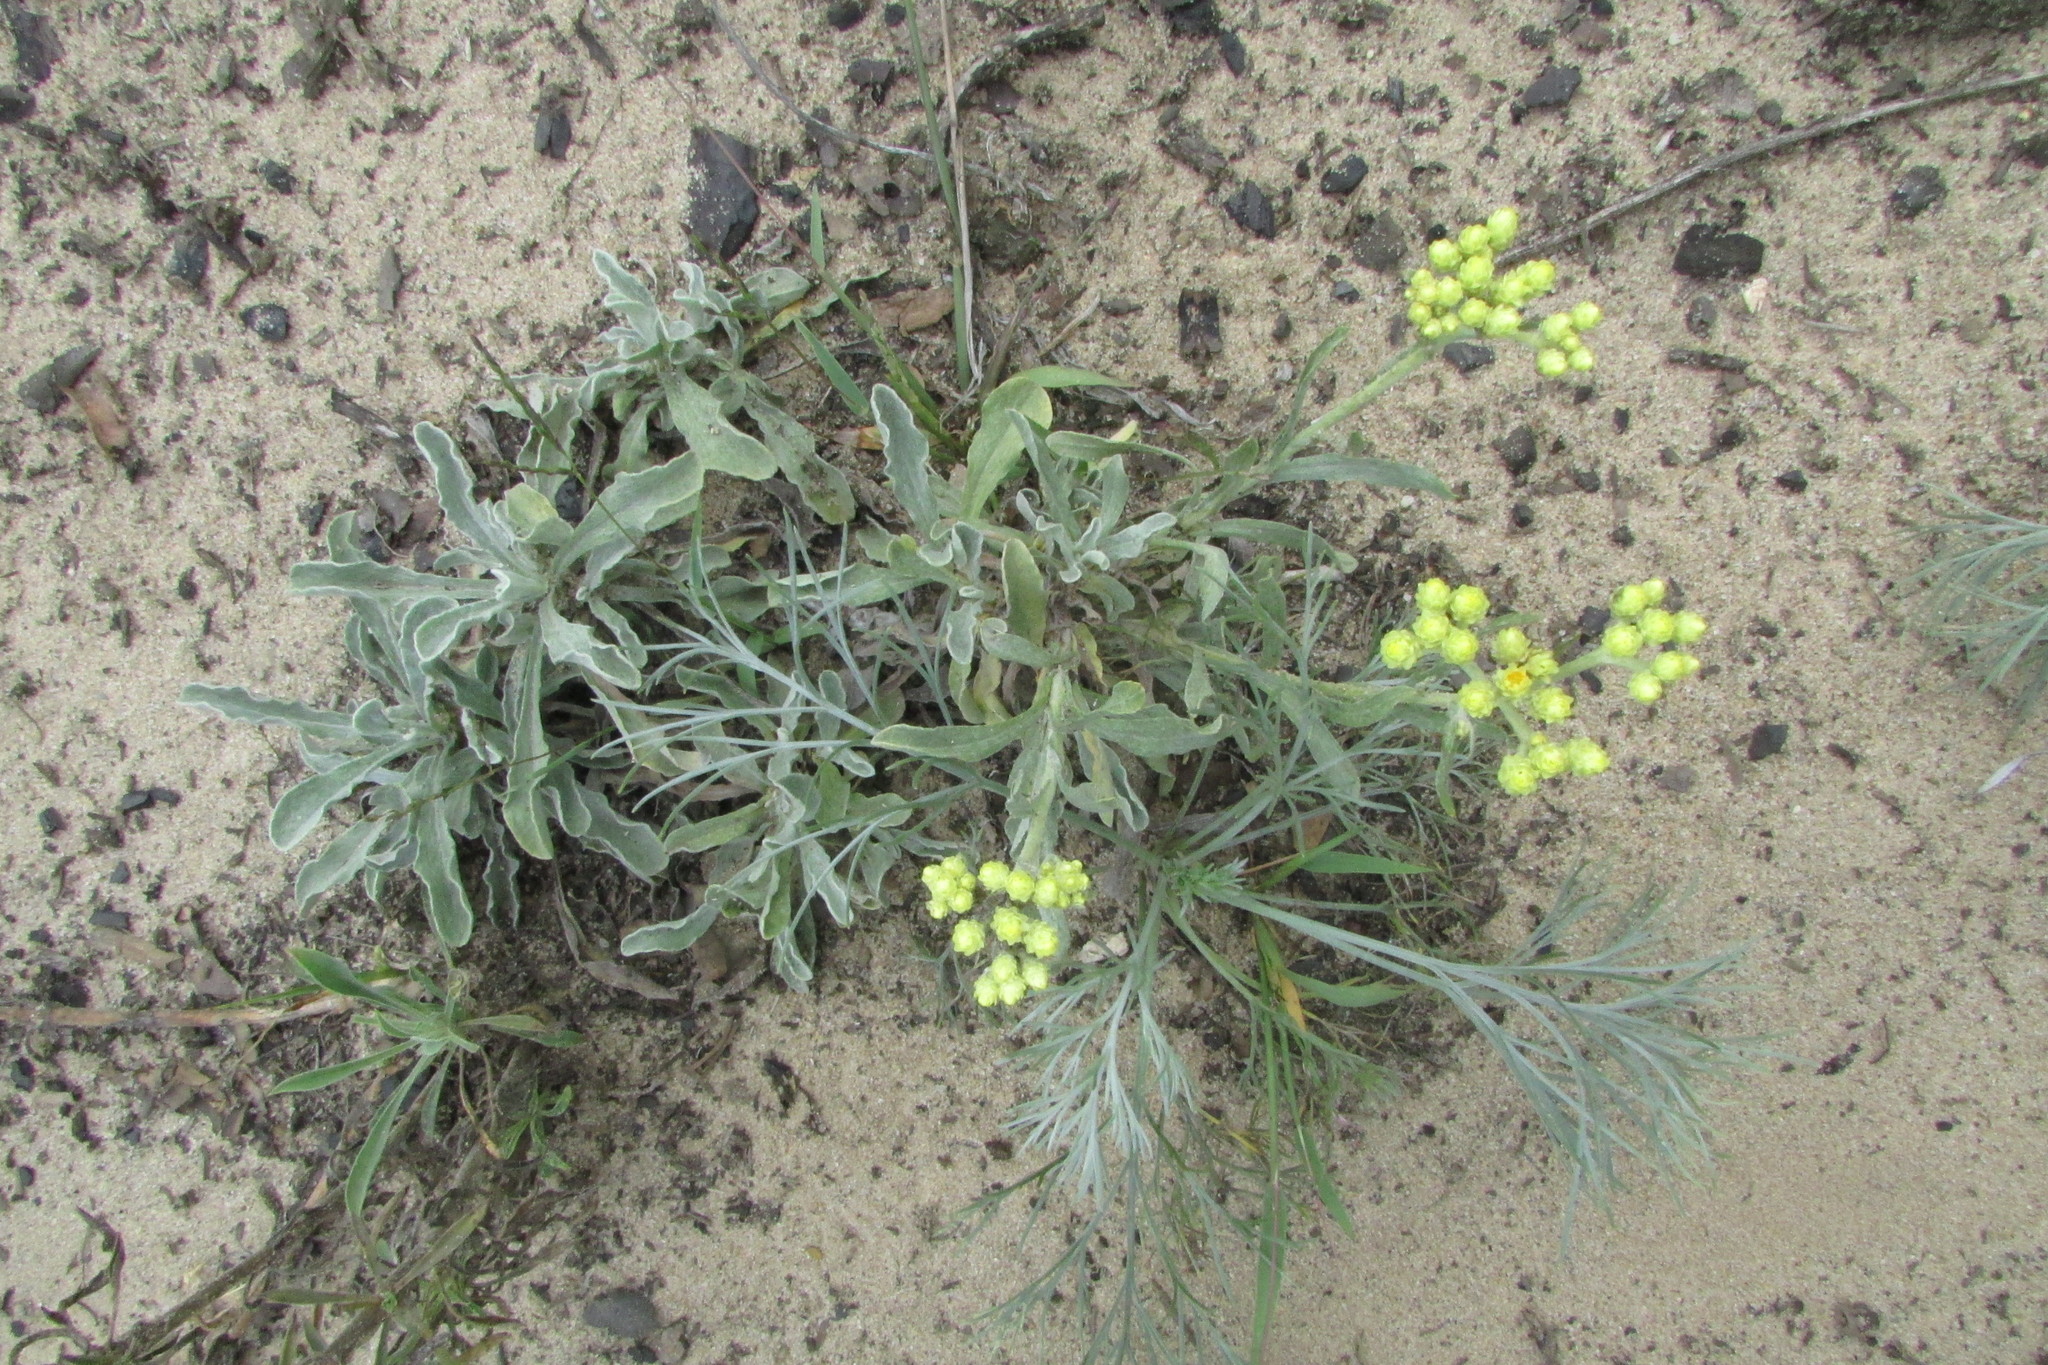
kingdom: Plantae
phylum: Tracheophyta
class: Magnoliopsida
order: Asterales
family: Asteraceae
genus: Helichrysum
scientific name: Helichrysum arenarium
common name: Strawflower
